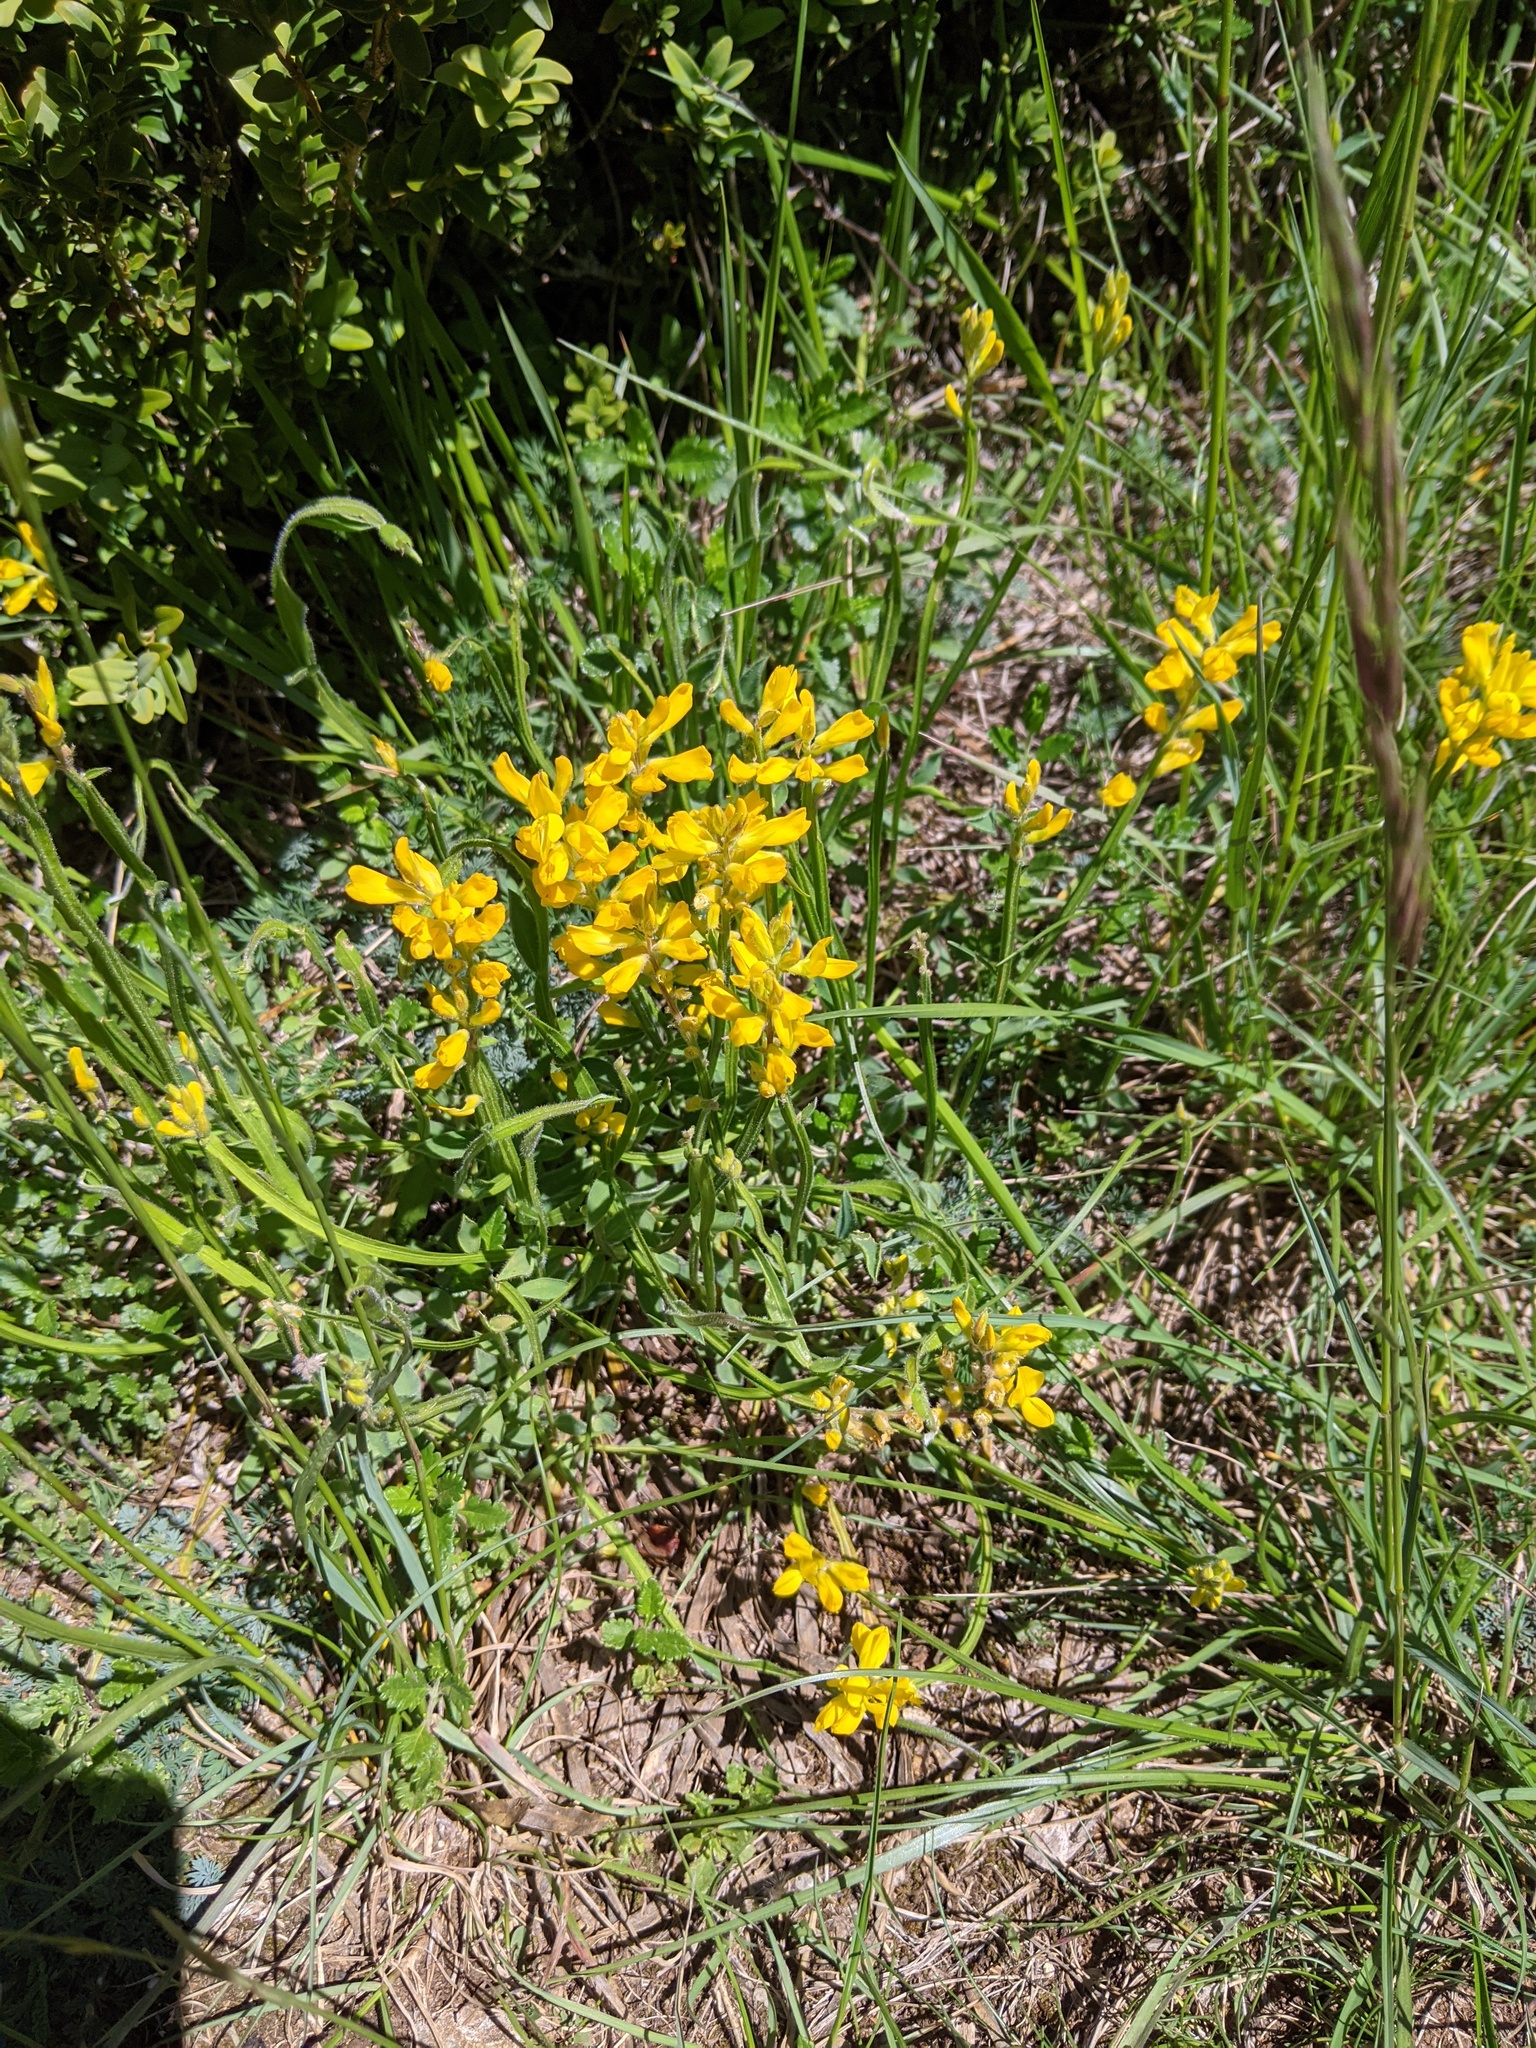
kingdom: Plantae
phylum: Tracheophyta
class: Magnoliopsida
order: Fabales
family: Fabaceae
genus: Genista
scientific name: Genista sagittalis
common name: Winged greenweed
